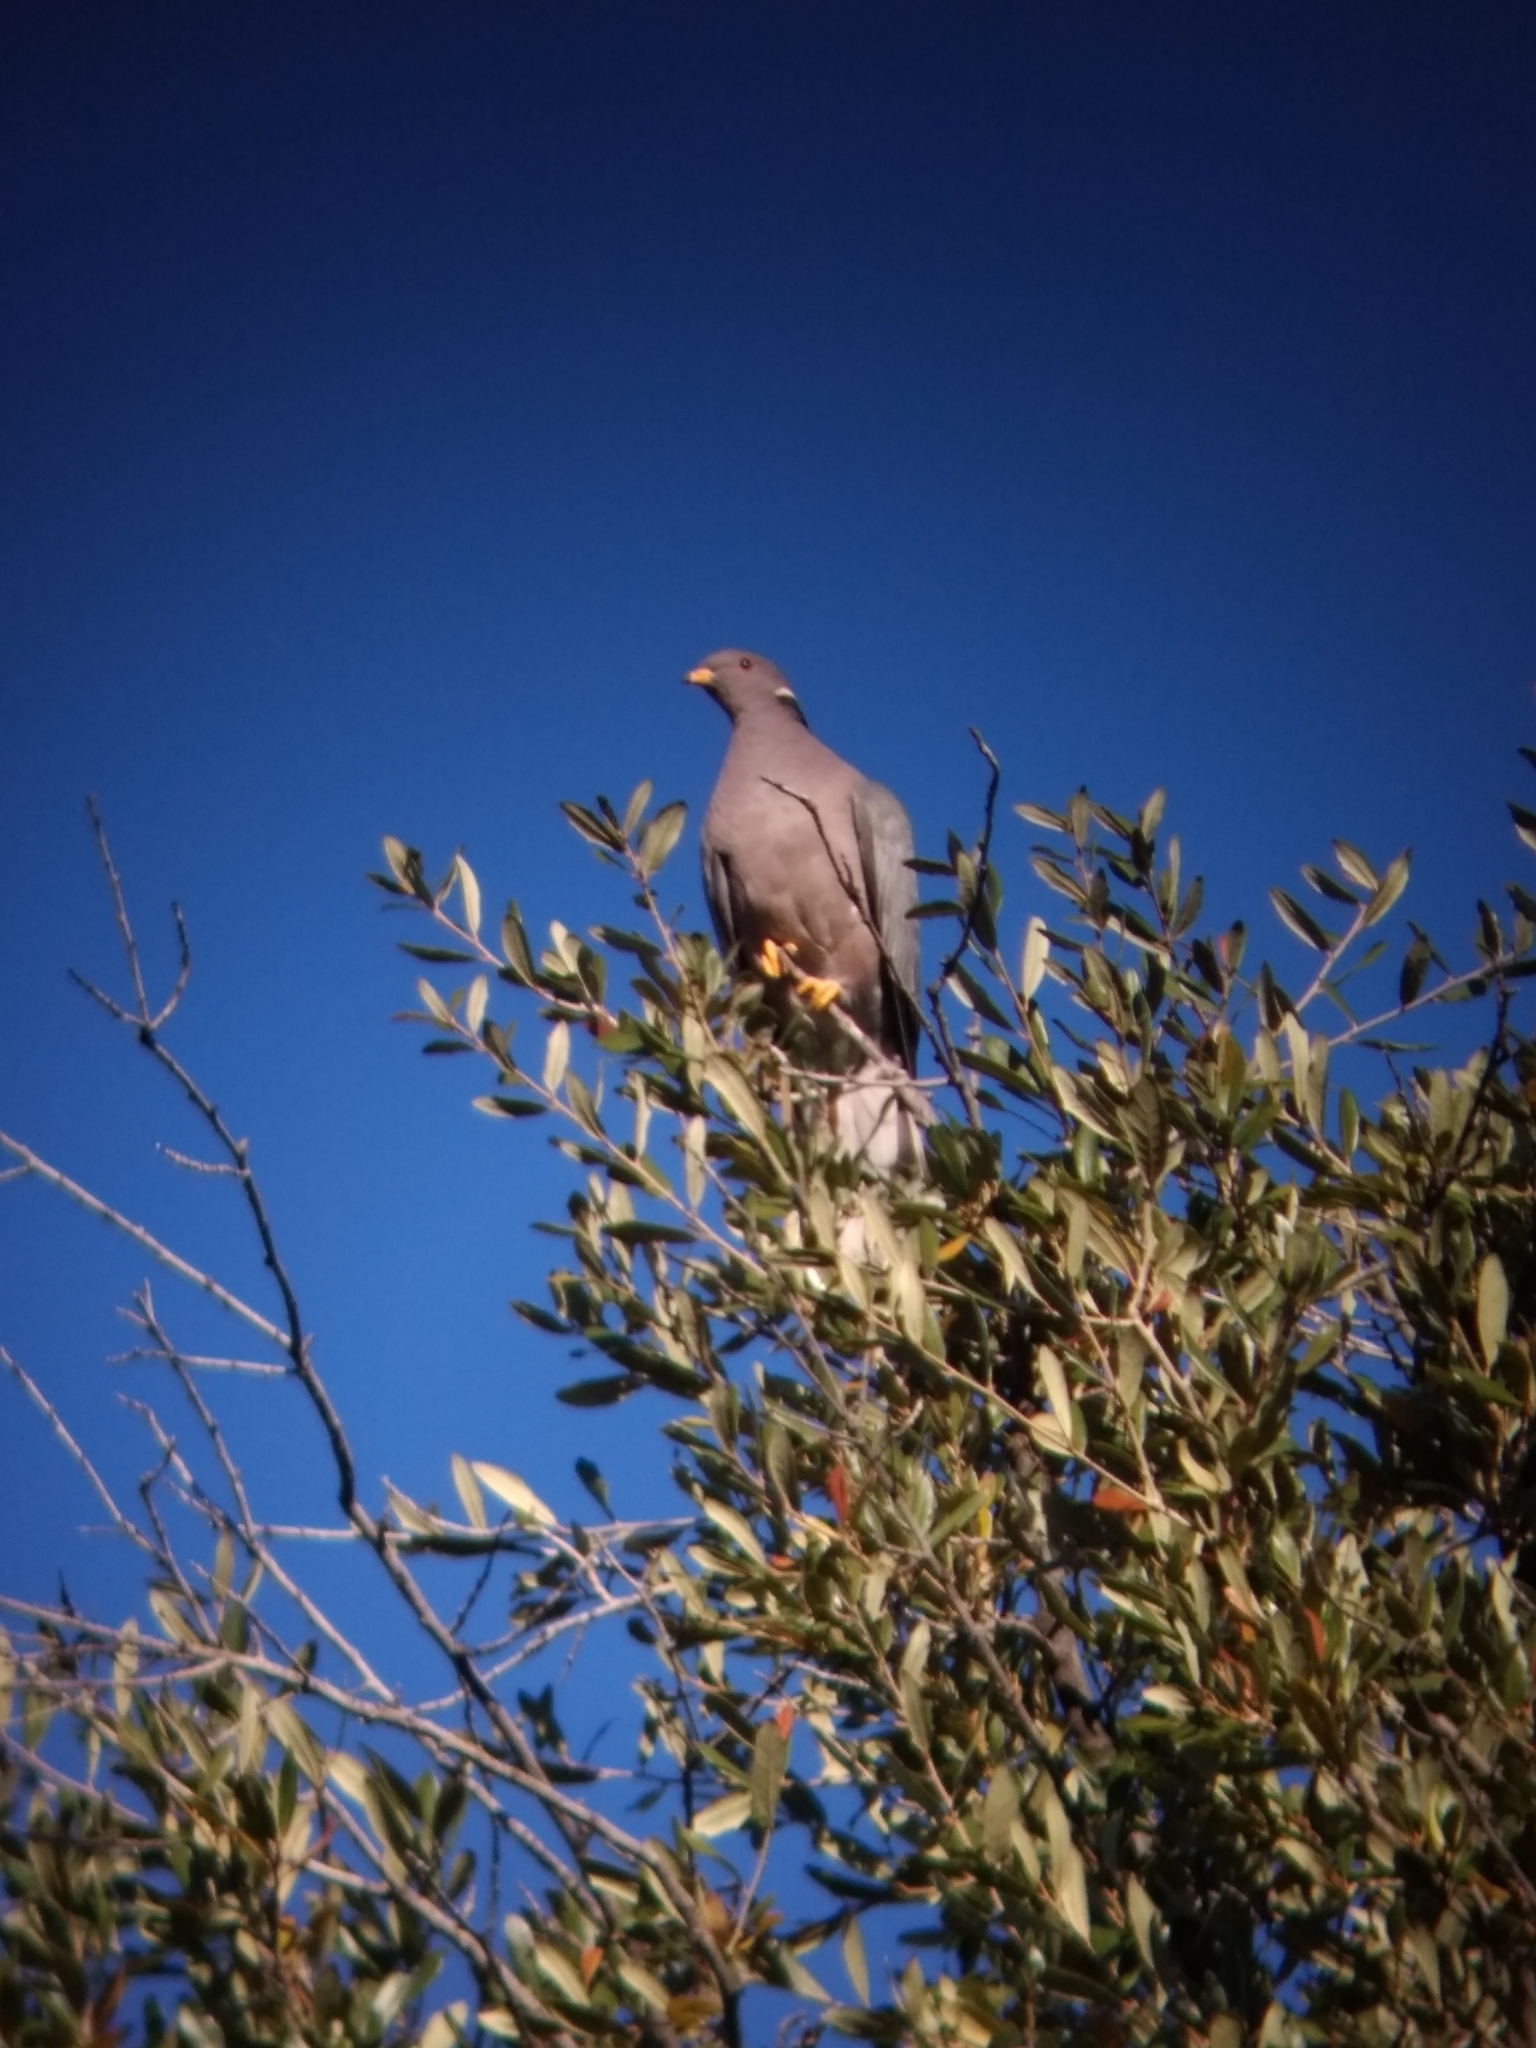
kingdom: Animalia
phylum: Chordata
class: Aves
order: Columbiformes
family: Columbidae
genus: Patagioenas
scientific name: Patagioenas fasciata
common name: Band-tailed pigeon
